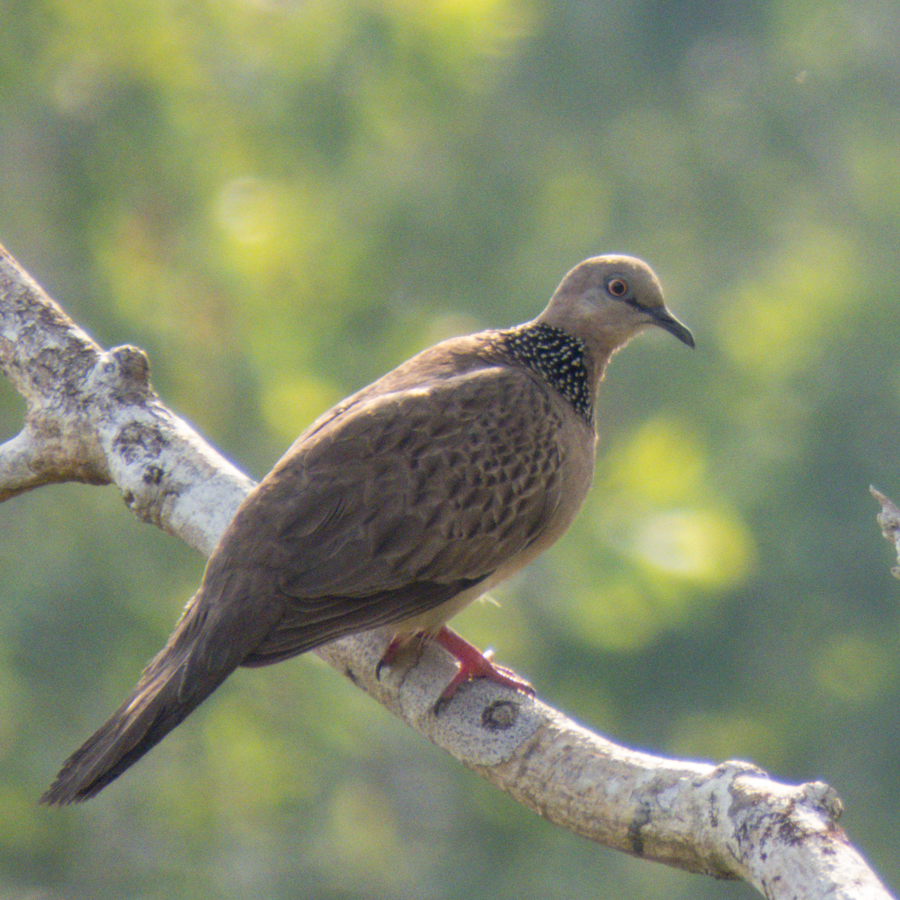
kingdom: Animalia
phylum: Chordata
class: Aves
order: Columbiformes
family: Columbidae
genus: Spilopelia
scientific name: Spilopelia chinensis
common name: Spotted dove
